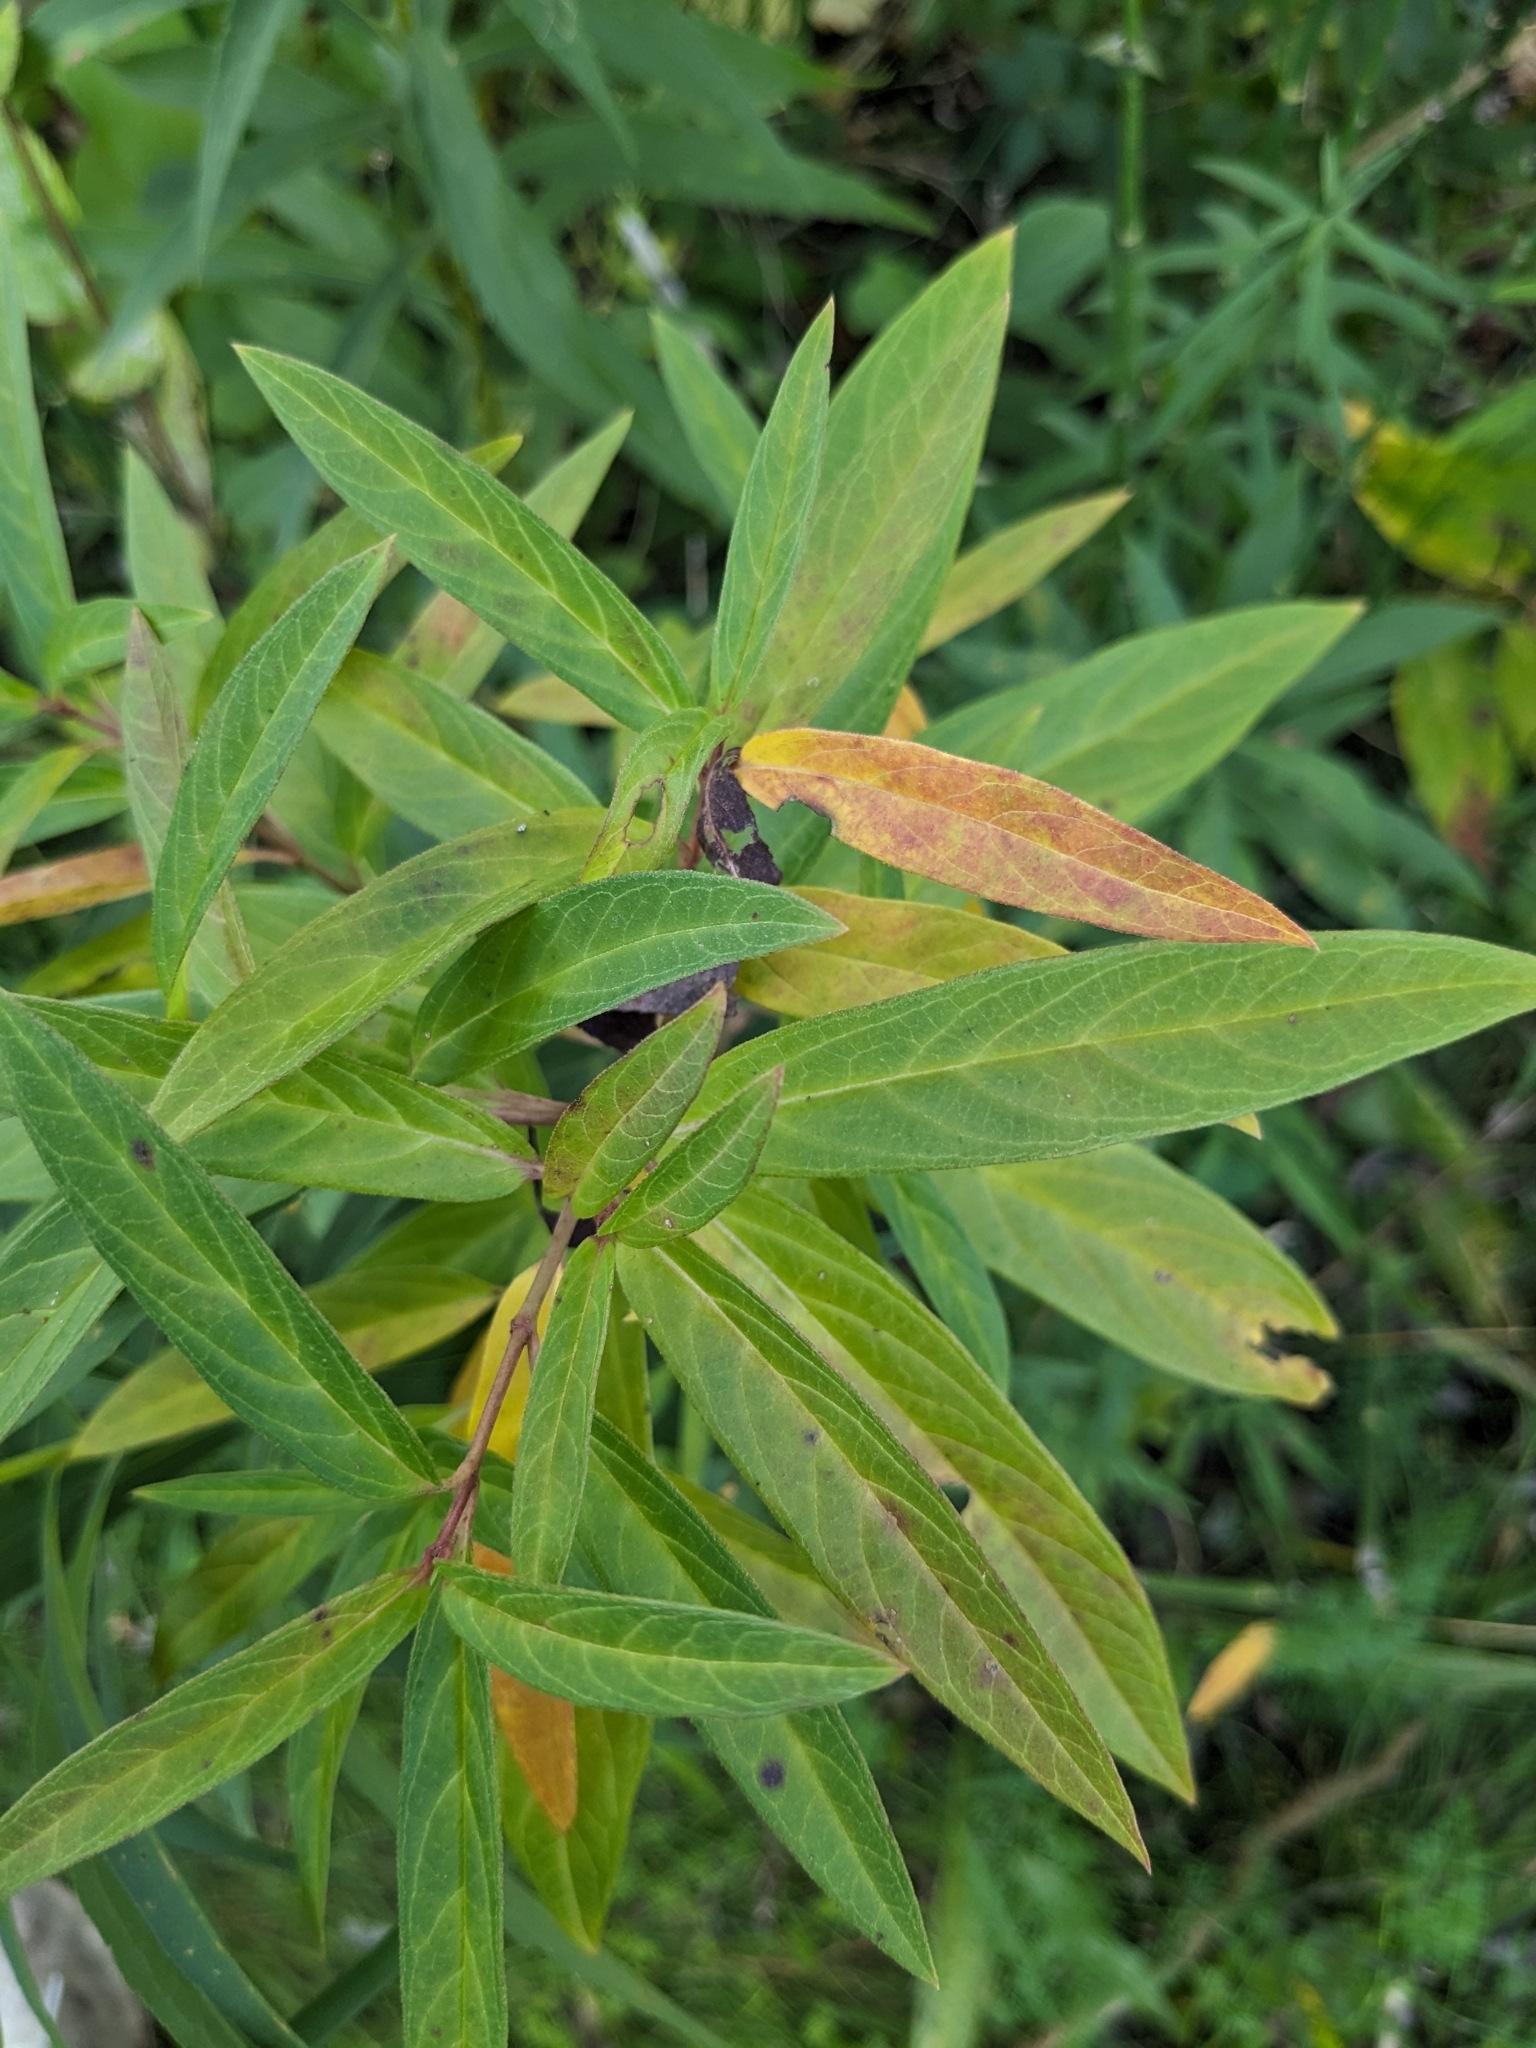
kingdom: Plantae
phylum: Tracheophyta
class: Magnoliopsida
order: Gentianales
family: Apocynaceae
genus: Asclepias
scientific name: Asclepias incarnata
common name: Swamp milkweed
